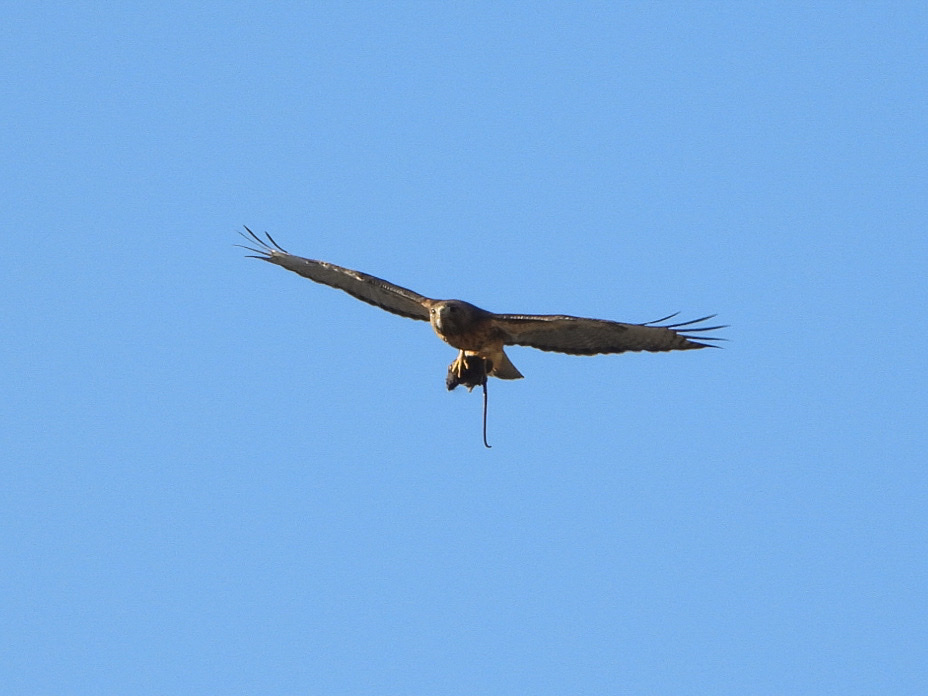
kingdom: Animalia
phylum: Chordata
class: Aves
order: Accipitriformes
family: Accipitridae
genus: Buteo
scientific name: Buteo jamaicensis
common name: Red-tailed hawk
